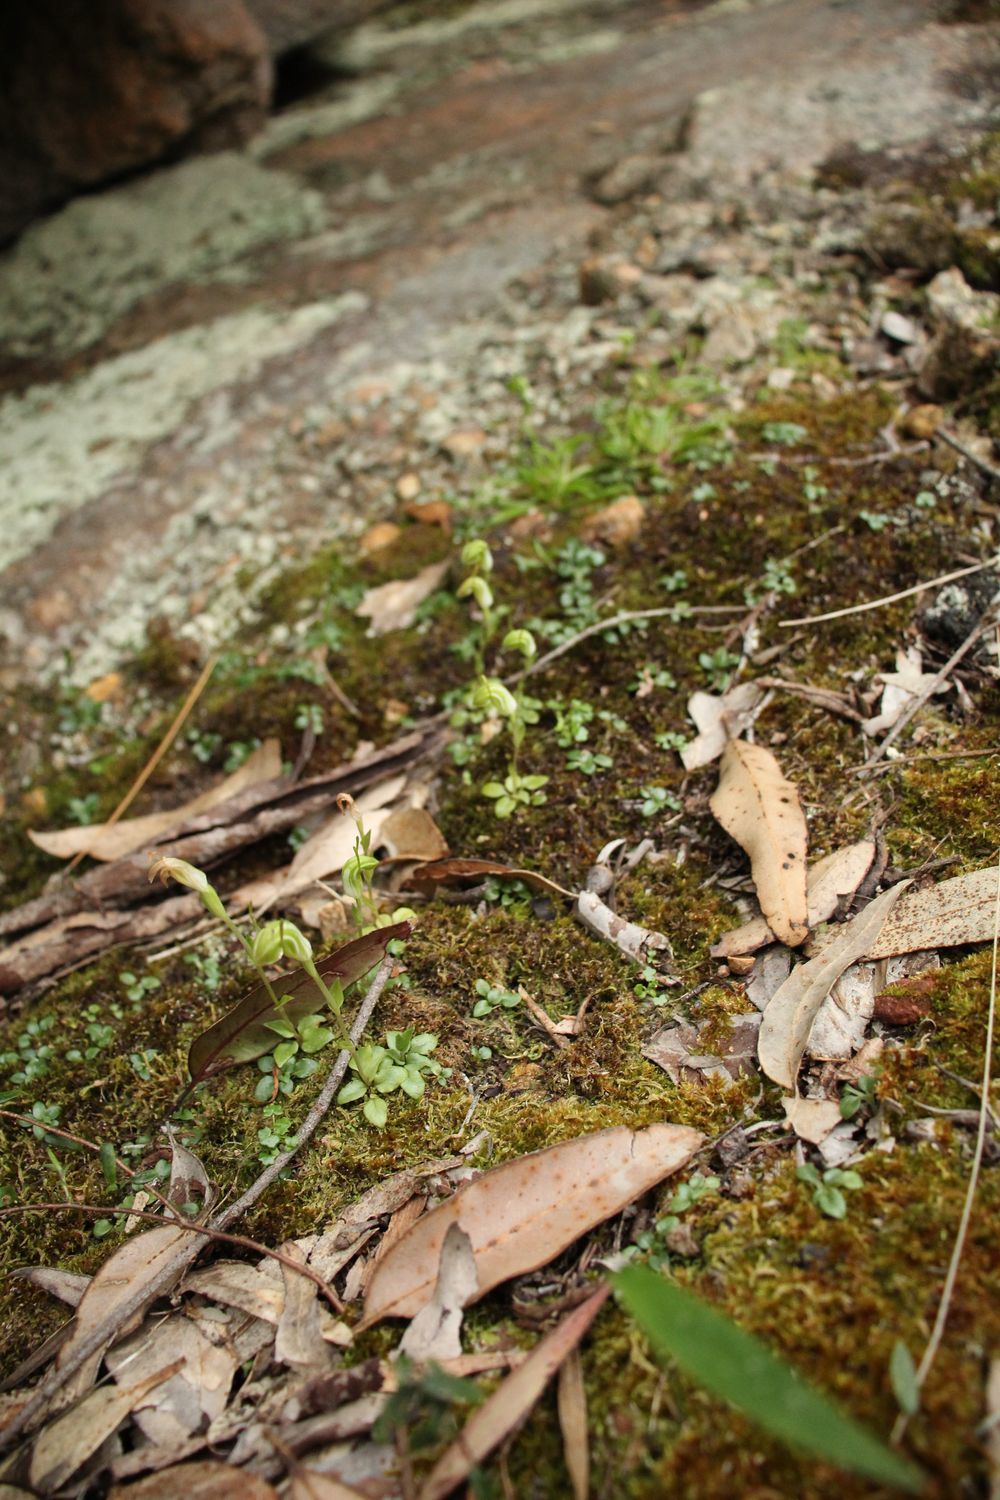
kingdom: Plantae
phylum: Tracheophyta
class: Liliopsida
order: Asparagales
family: Orchidaceae
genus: Pterostylis
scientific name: Pterostylis actites
